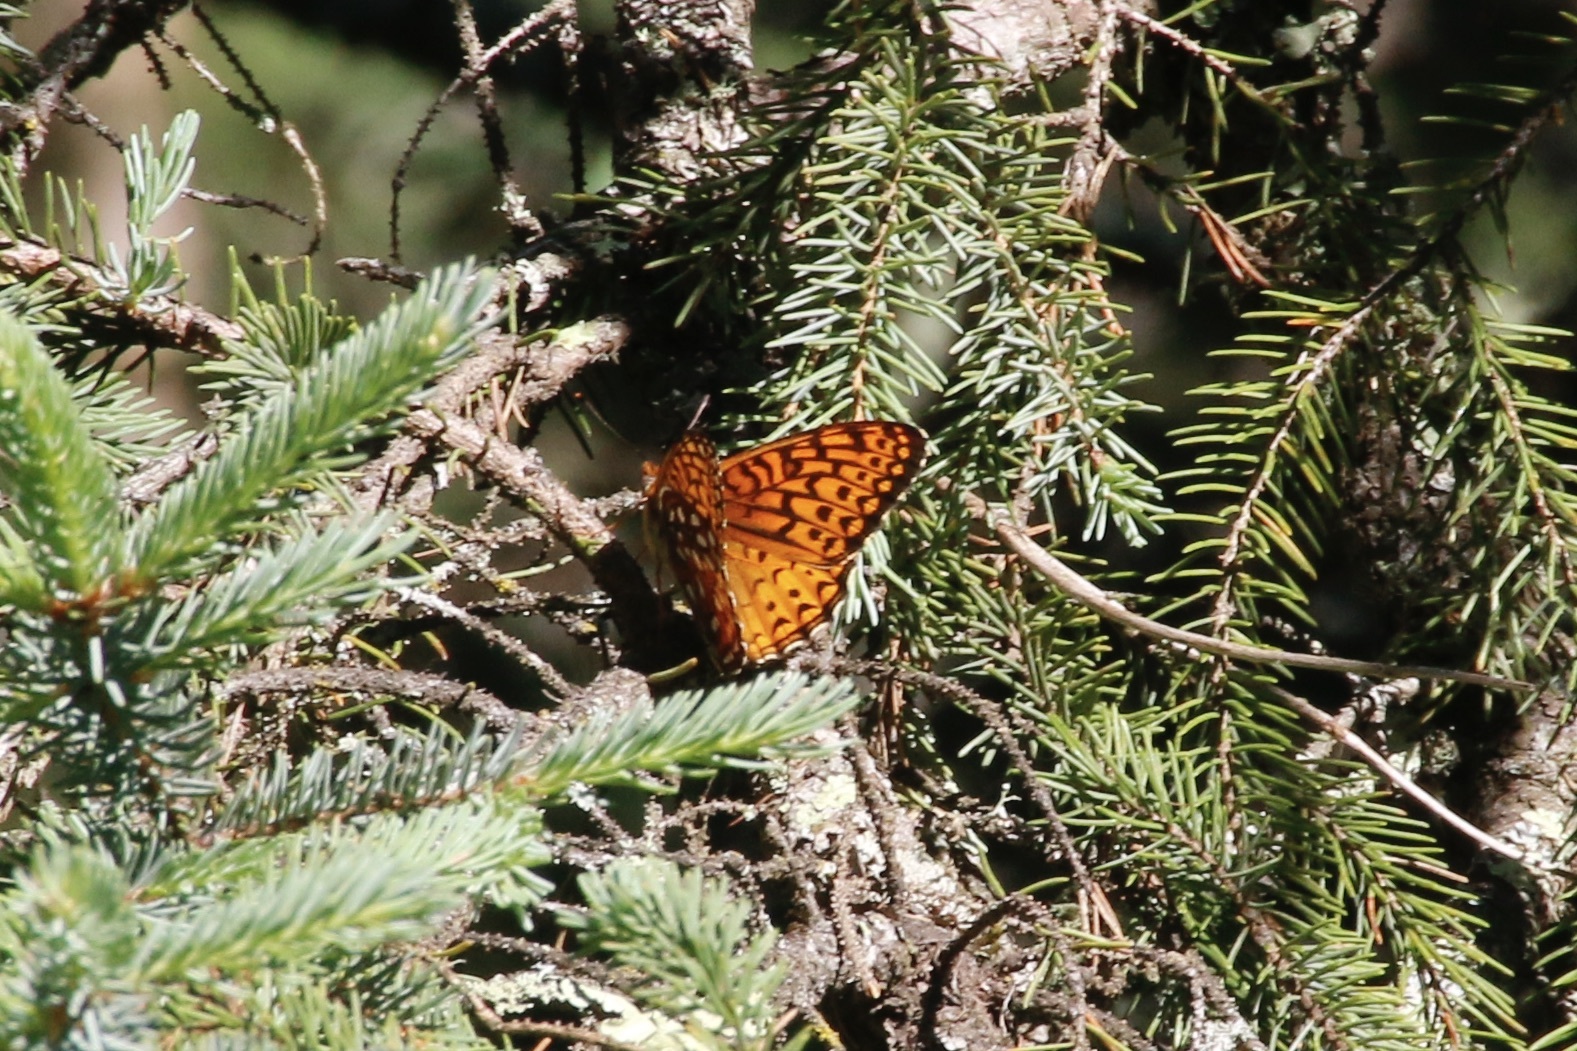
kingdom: Animalia
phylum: Arthropoda
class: Insecta
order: Lepidoptera
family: Nymphalidae
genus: Speyeria
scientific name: Speyeria atlantis
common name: Atlantis fritillary
